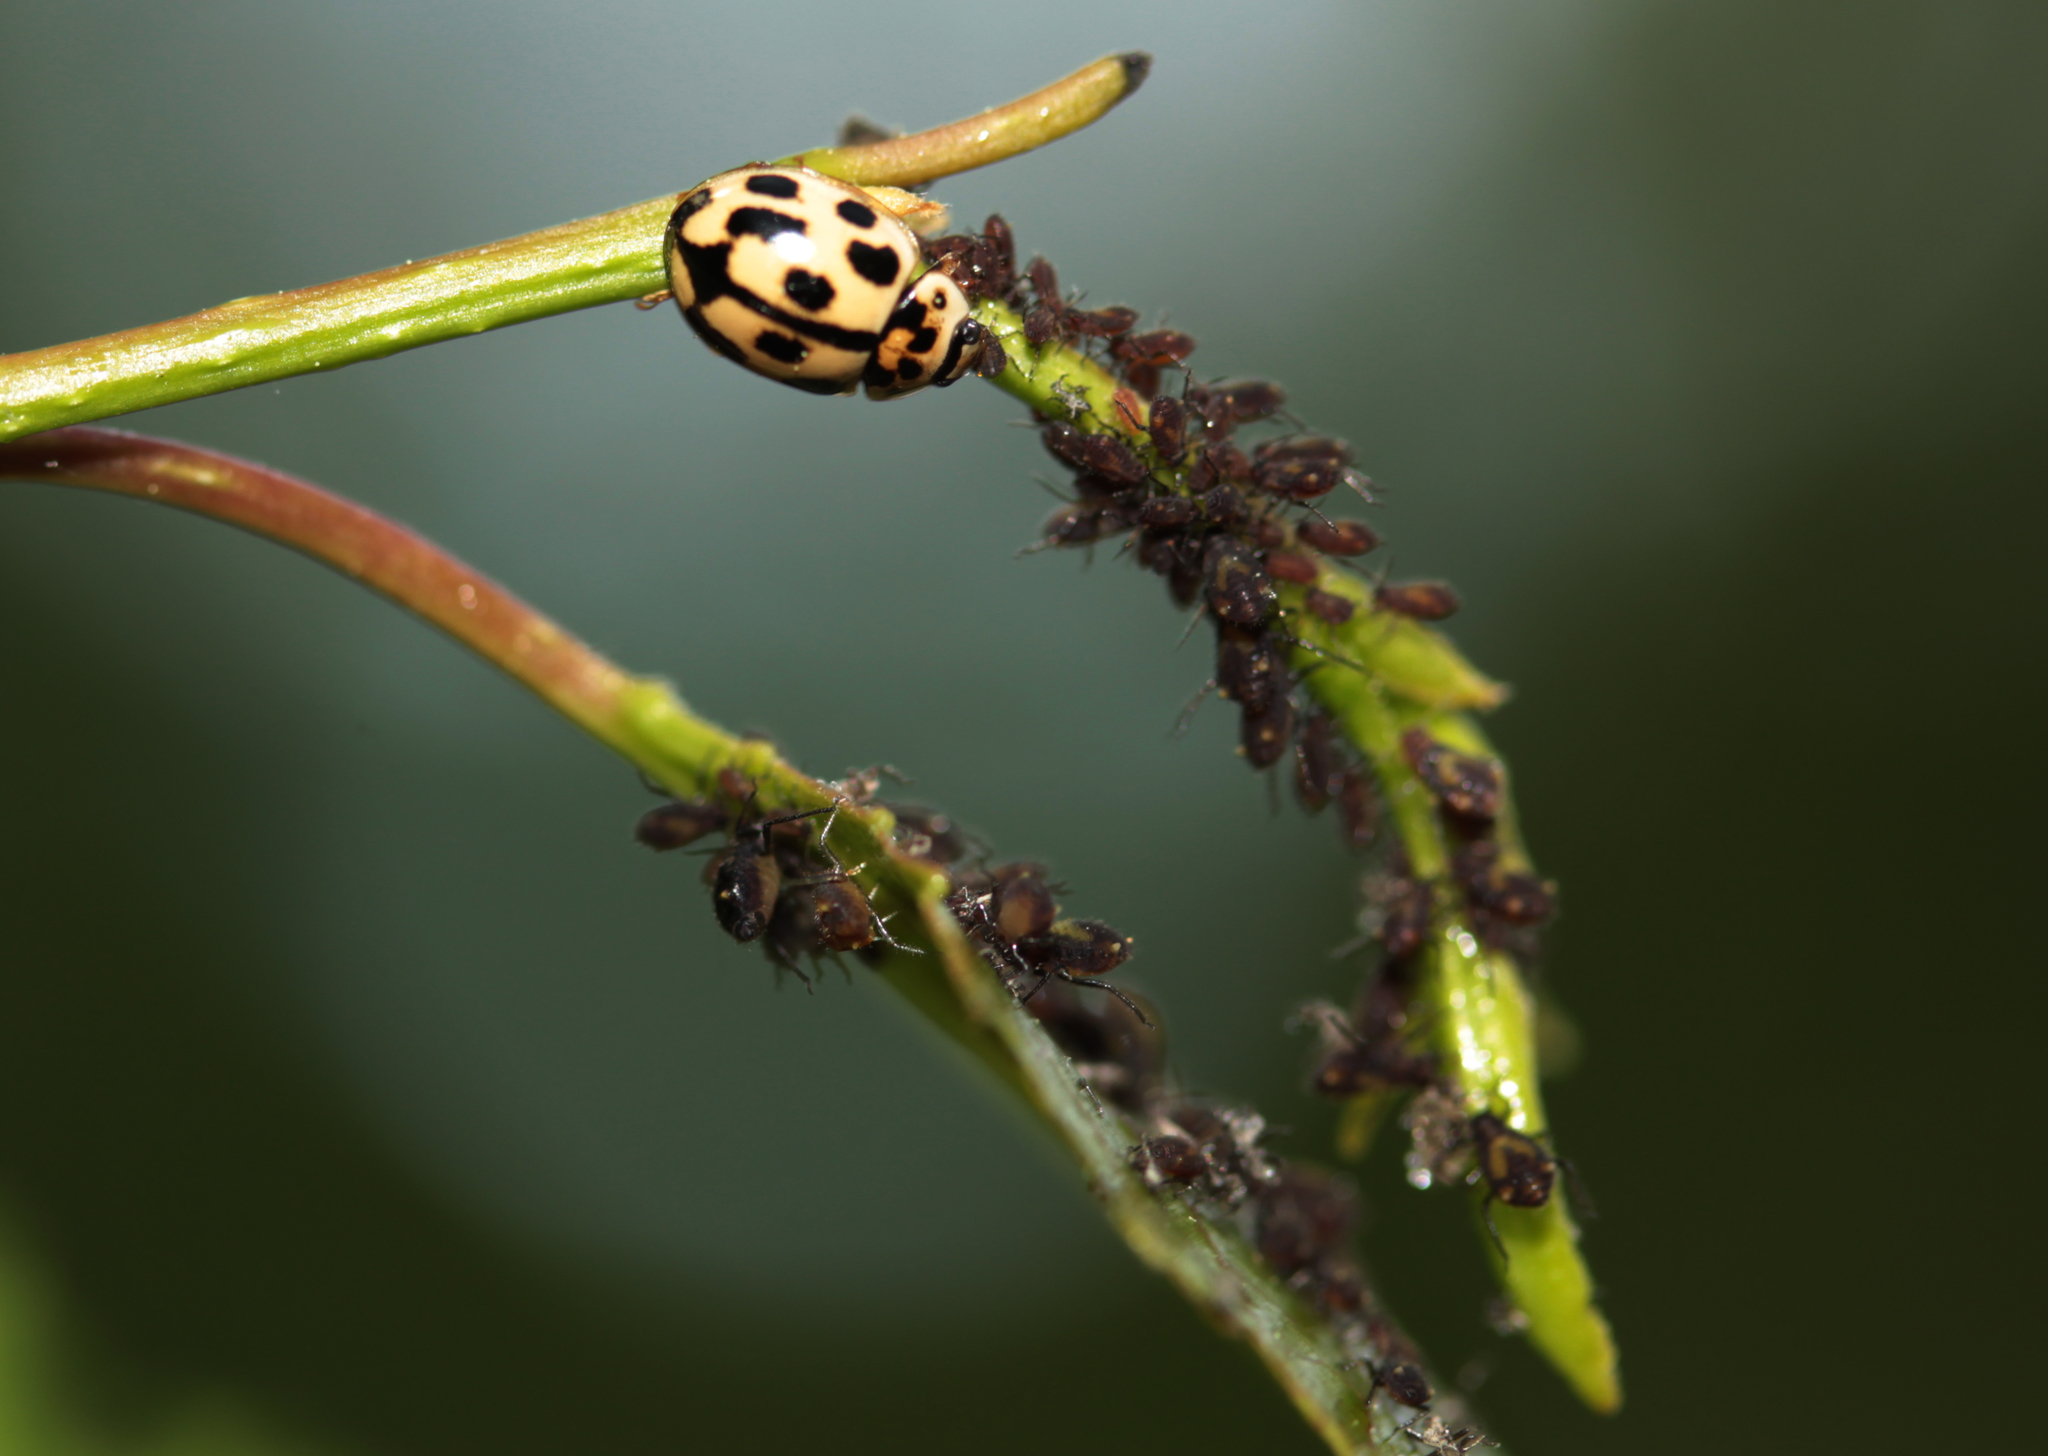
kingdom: Animalia
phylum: Arthropoda
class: Insecta
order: Coleoptera
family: Coccinellidae
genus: Propylaea
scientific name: Propylaea quatuordecimpunctata
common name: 14-spotted ladybird beetle
